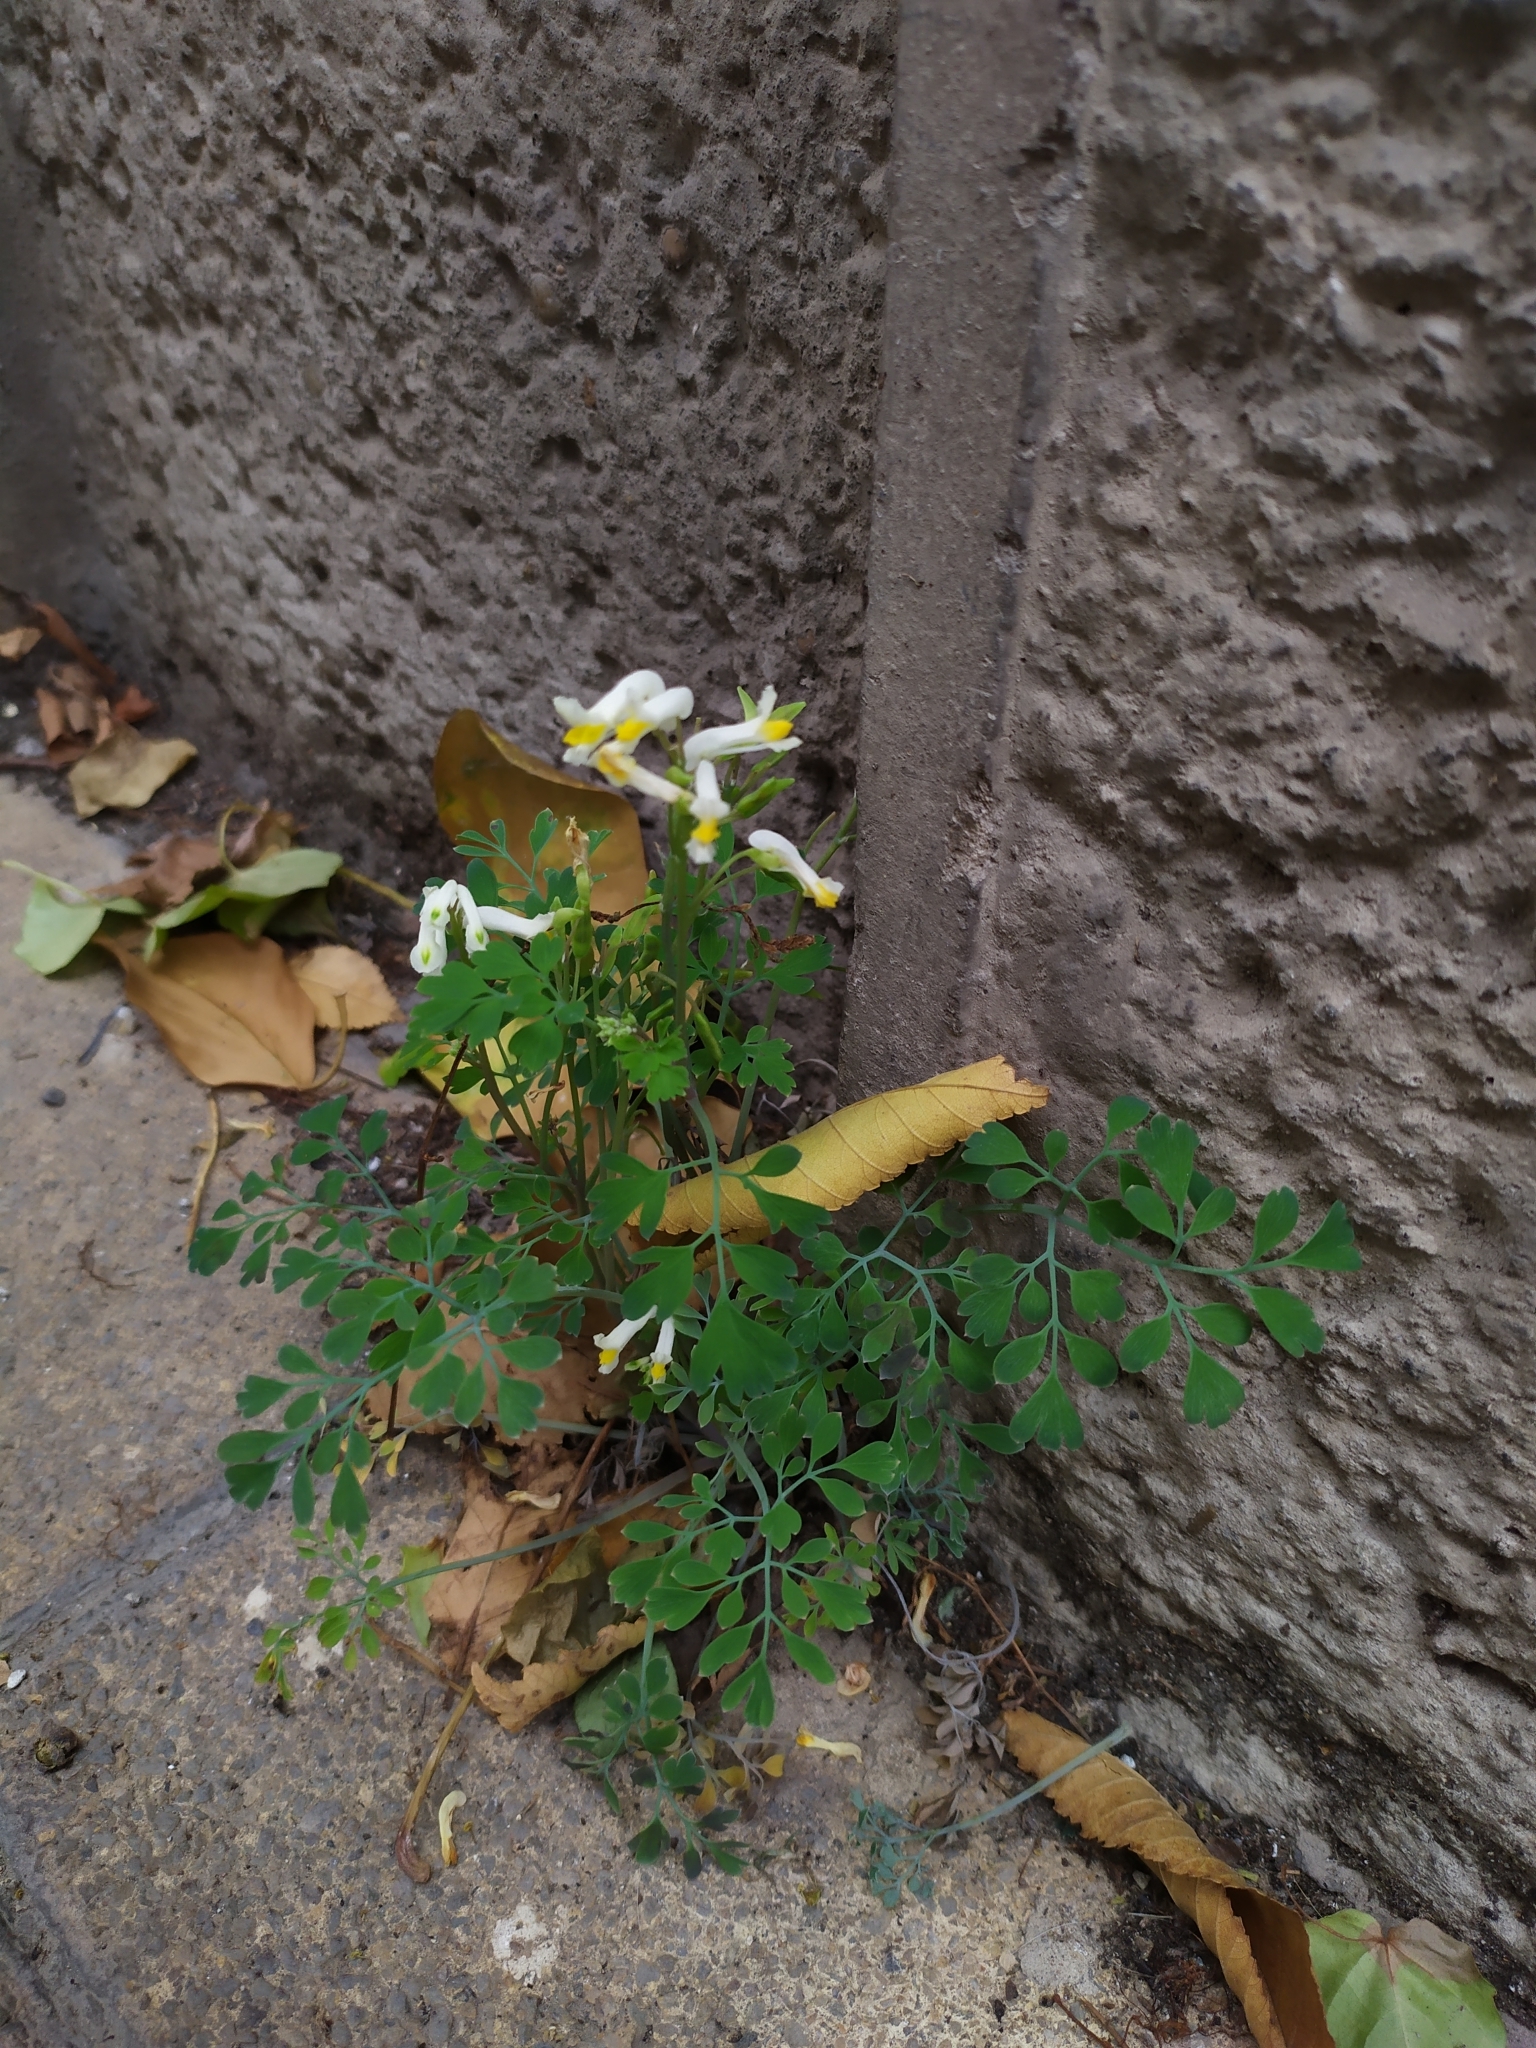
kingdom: Plantae
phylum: Tracheophyta
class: Magnoliopsida
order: Ranunculales
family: Papaveraceae
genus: Pseudofumaria
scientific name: Pseudofumaria alba
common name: Pale corydalis
